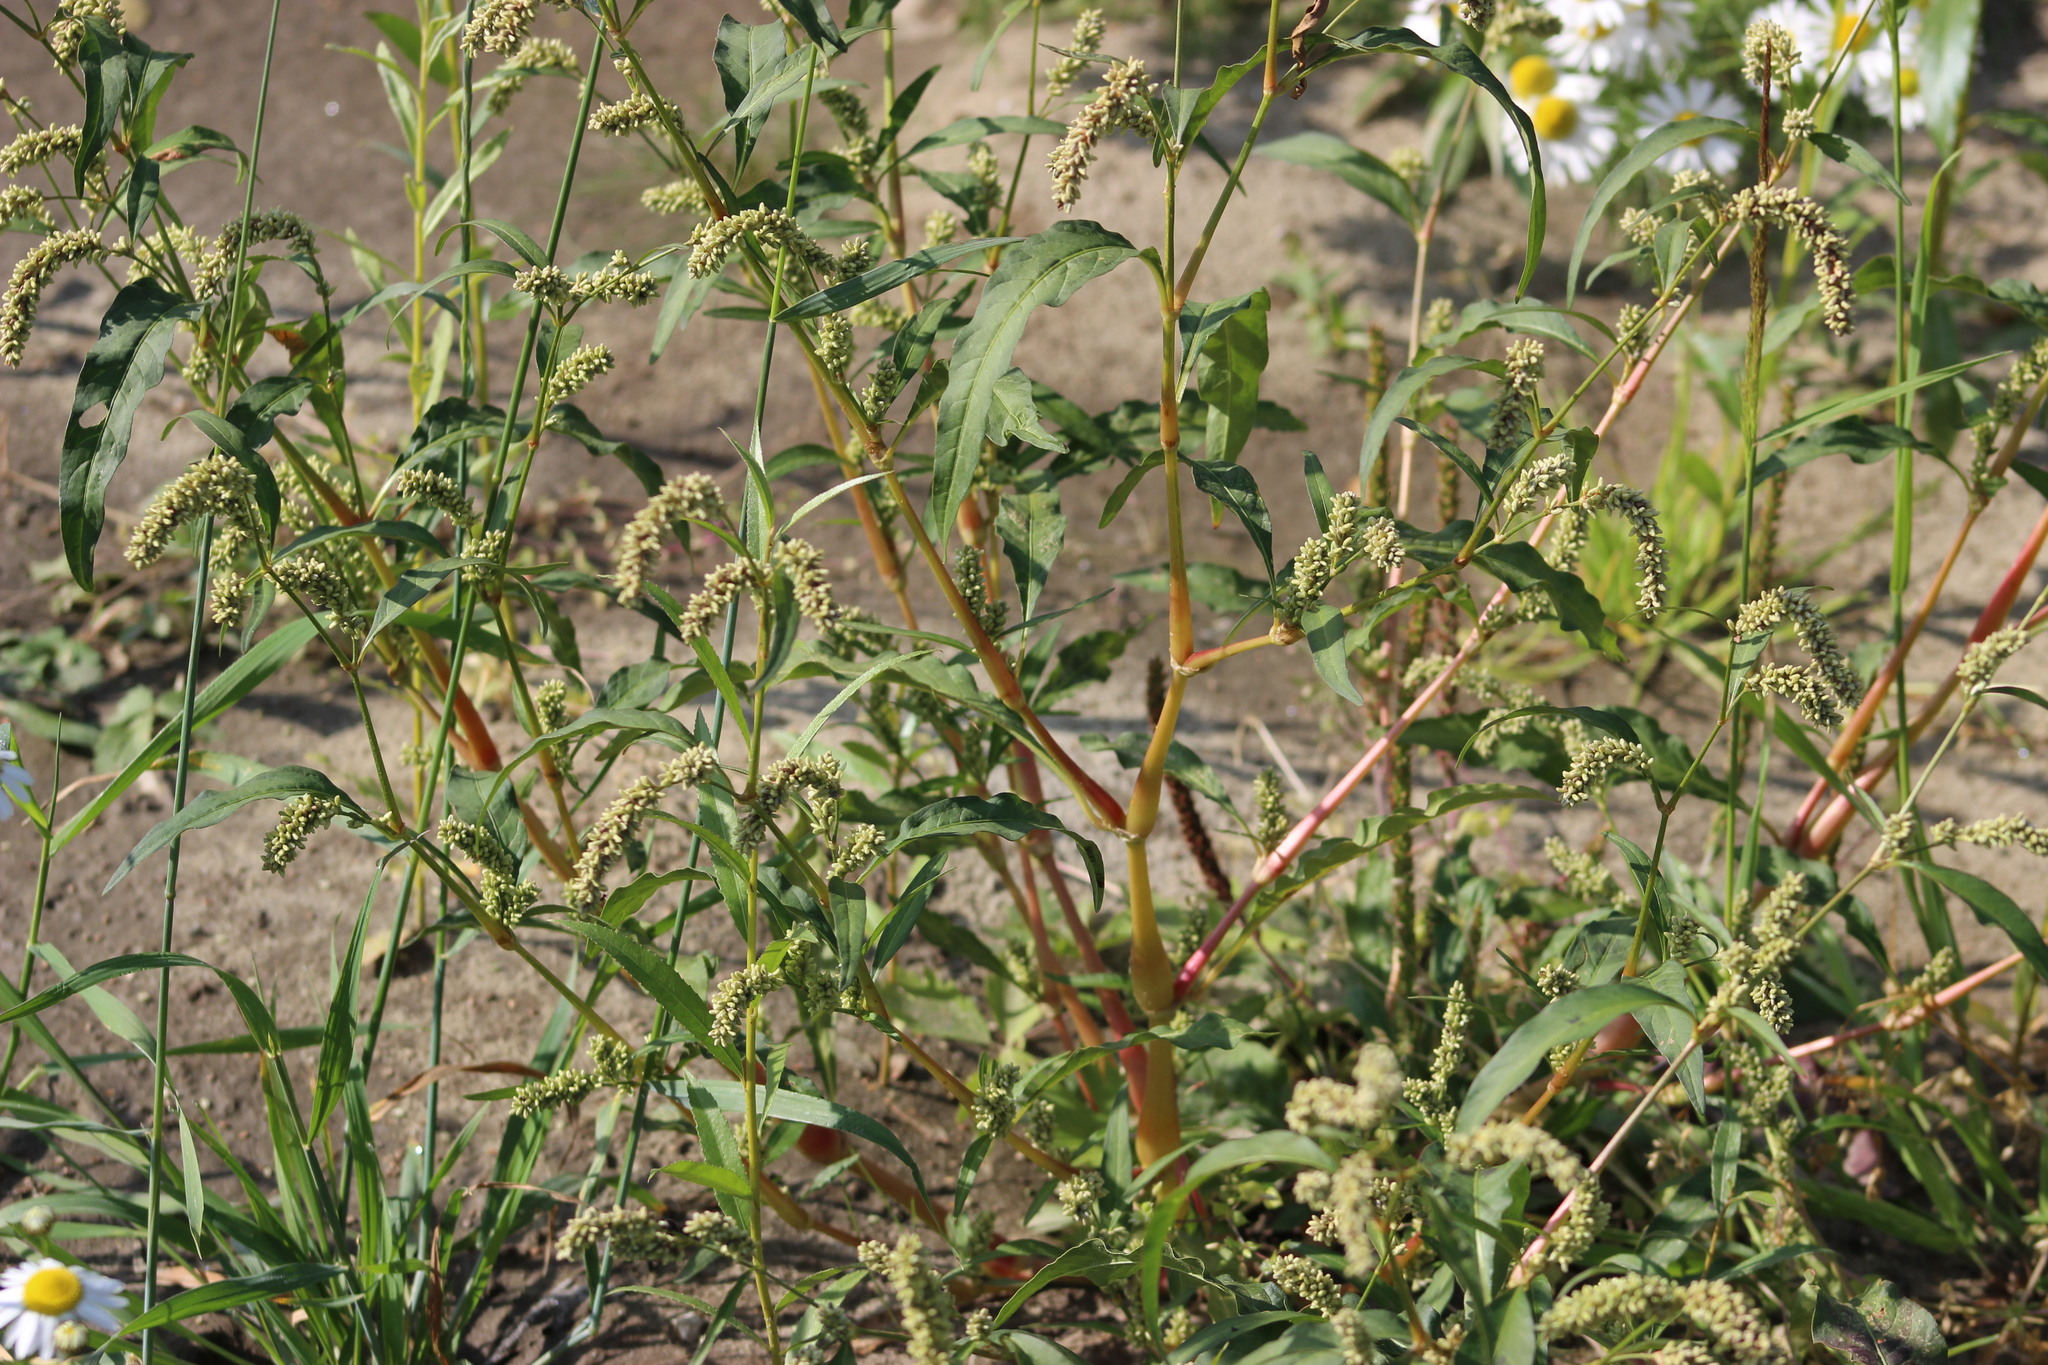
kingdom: Plantae
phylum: Tracheophyta
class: Magnoliopsida
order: Caryophyllales
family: Polygonaceae
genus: Persicaria
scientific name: Persicaria lapathifolia
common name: Curlytop knotweed
